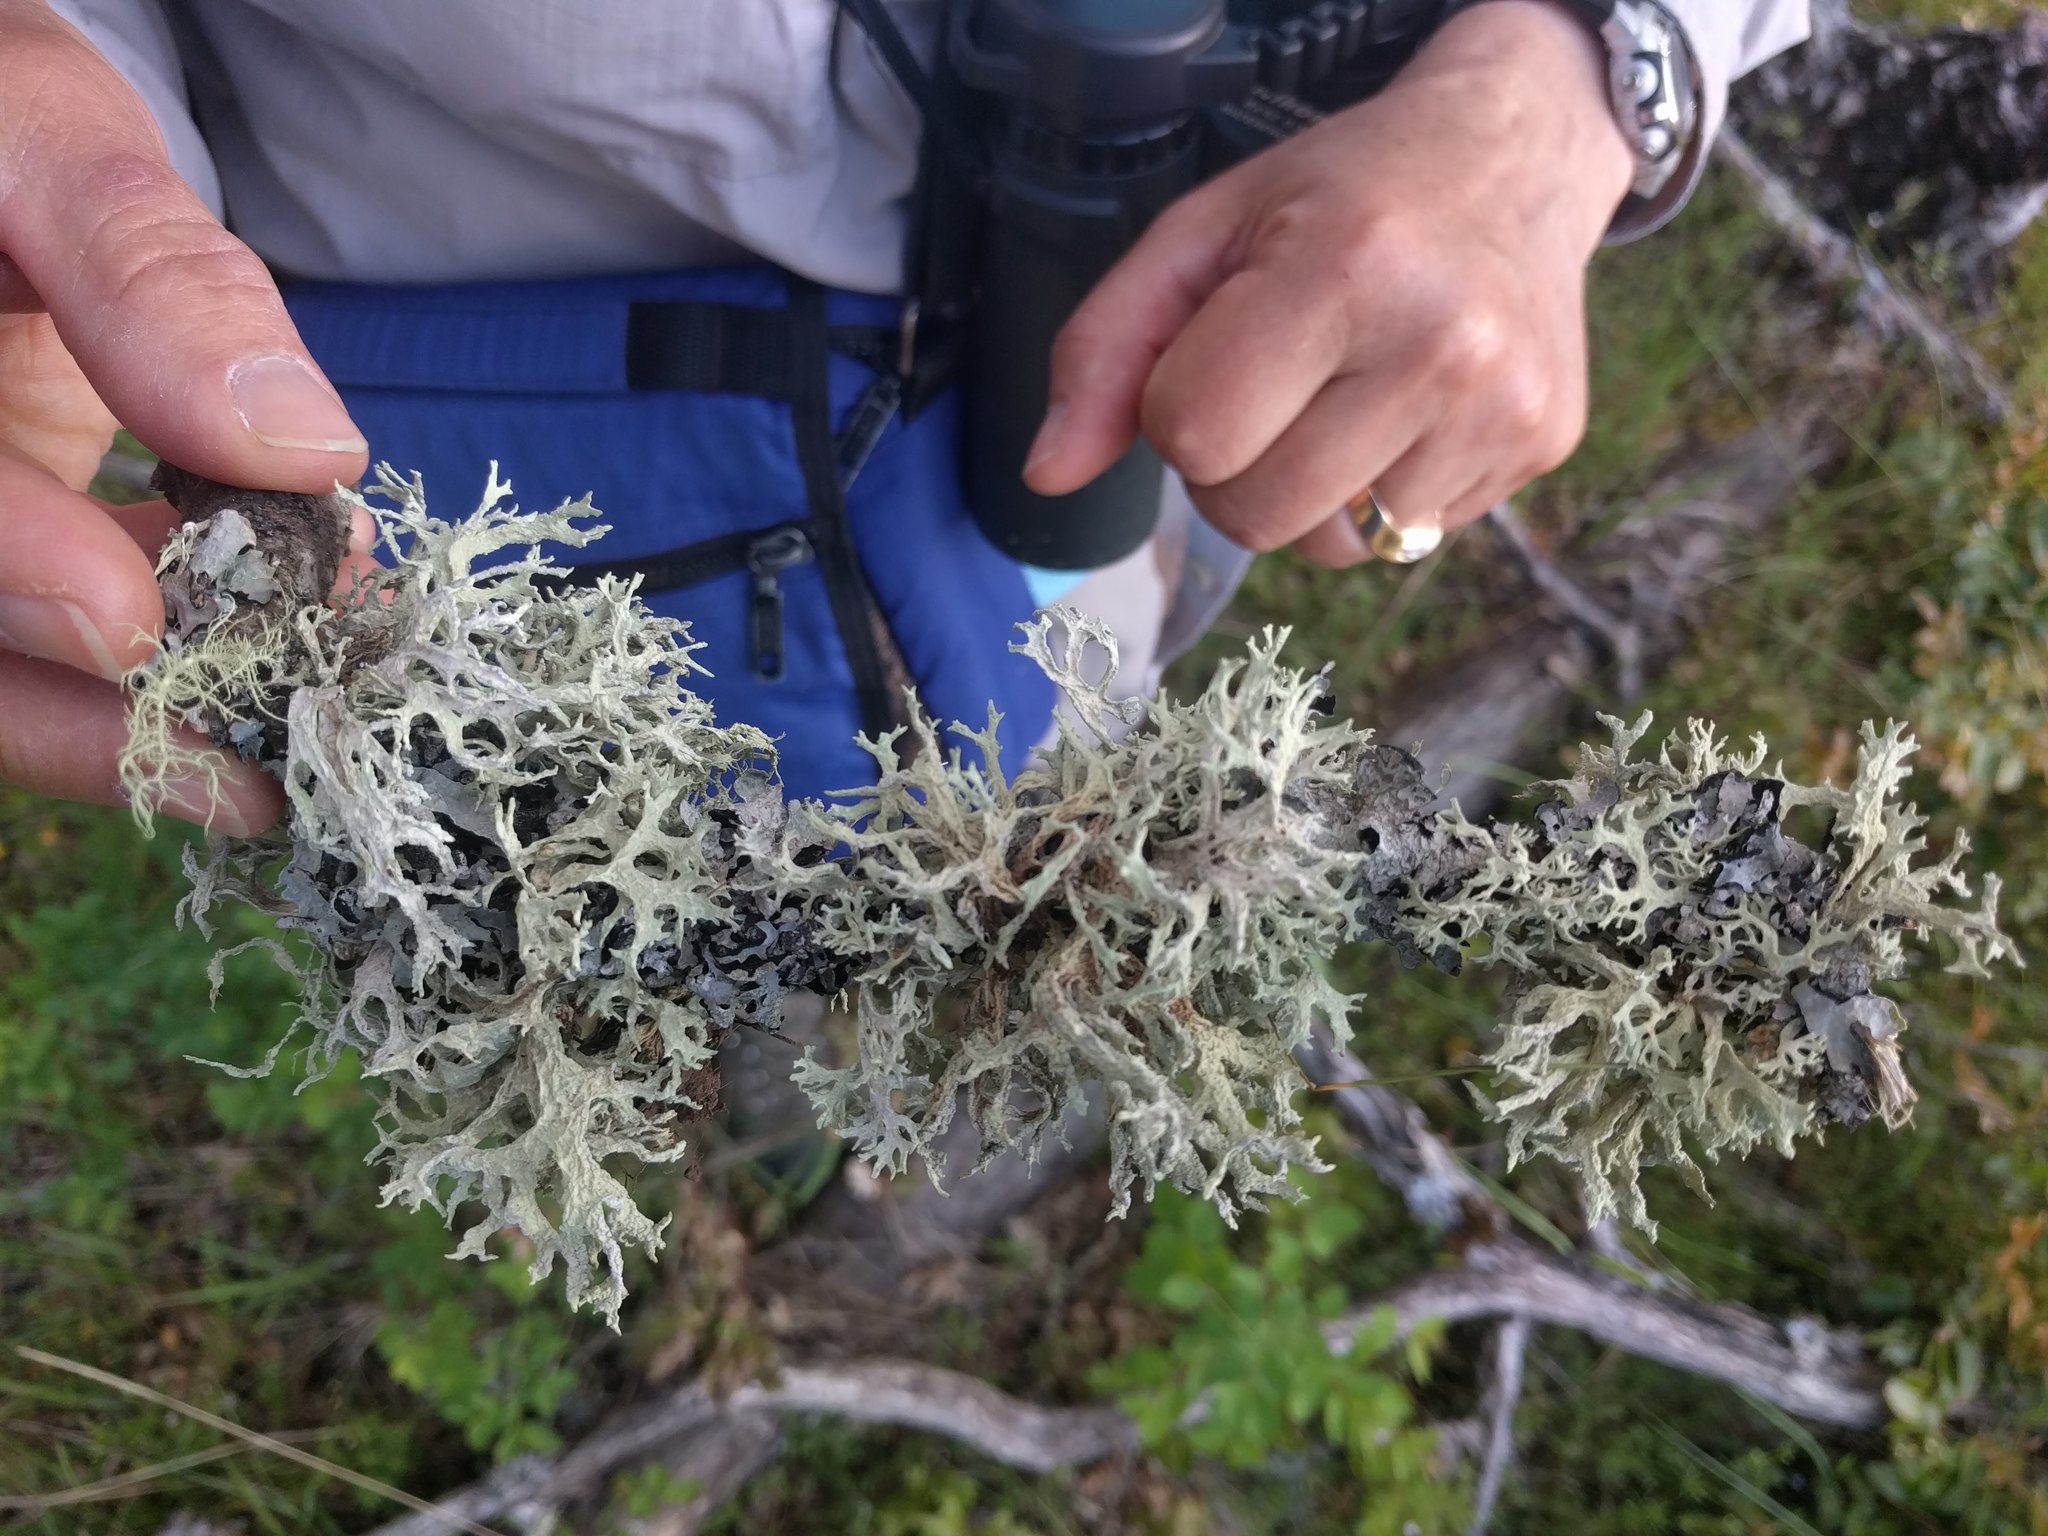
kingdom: Fungi
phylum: Ascomycota
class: Lecanoromycetes
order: Lecanorales
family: Parmeliaceae
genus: Evernia
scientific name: Evernia prunastri
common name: Oak moss
